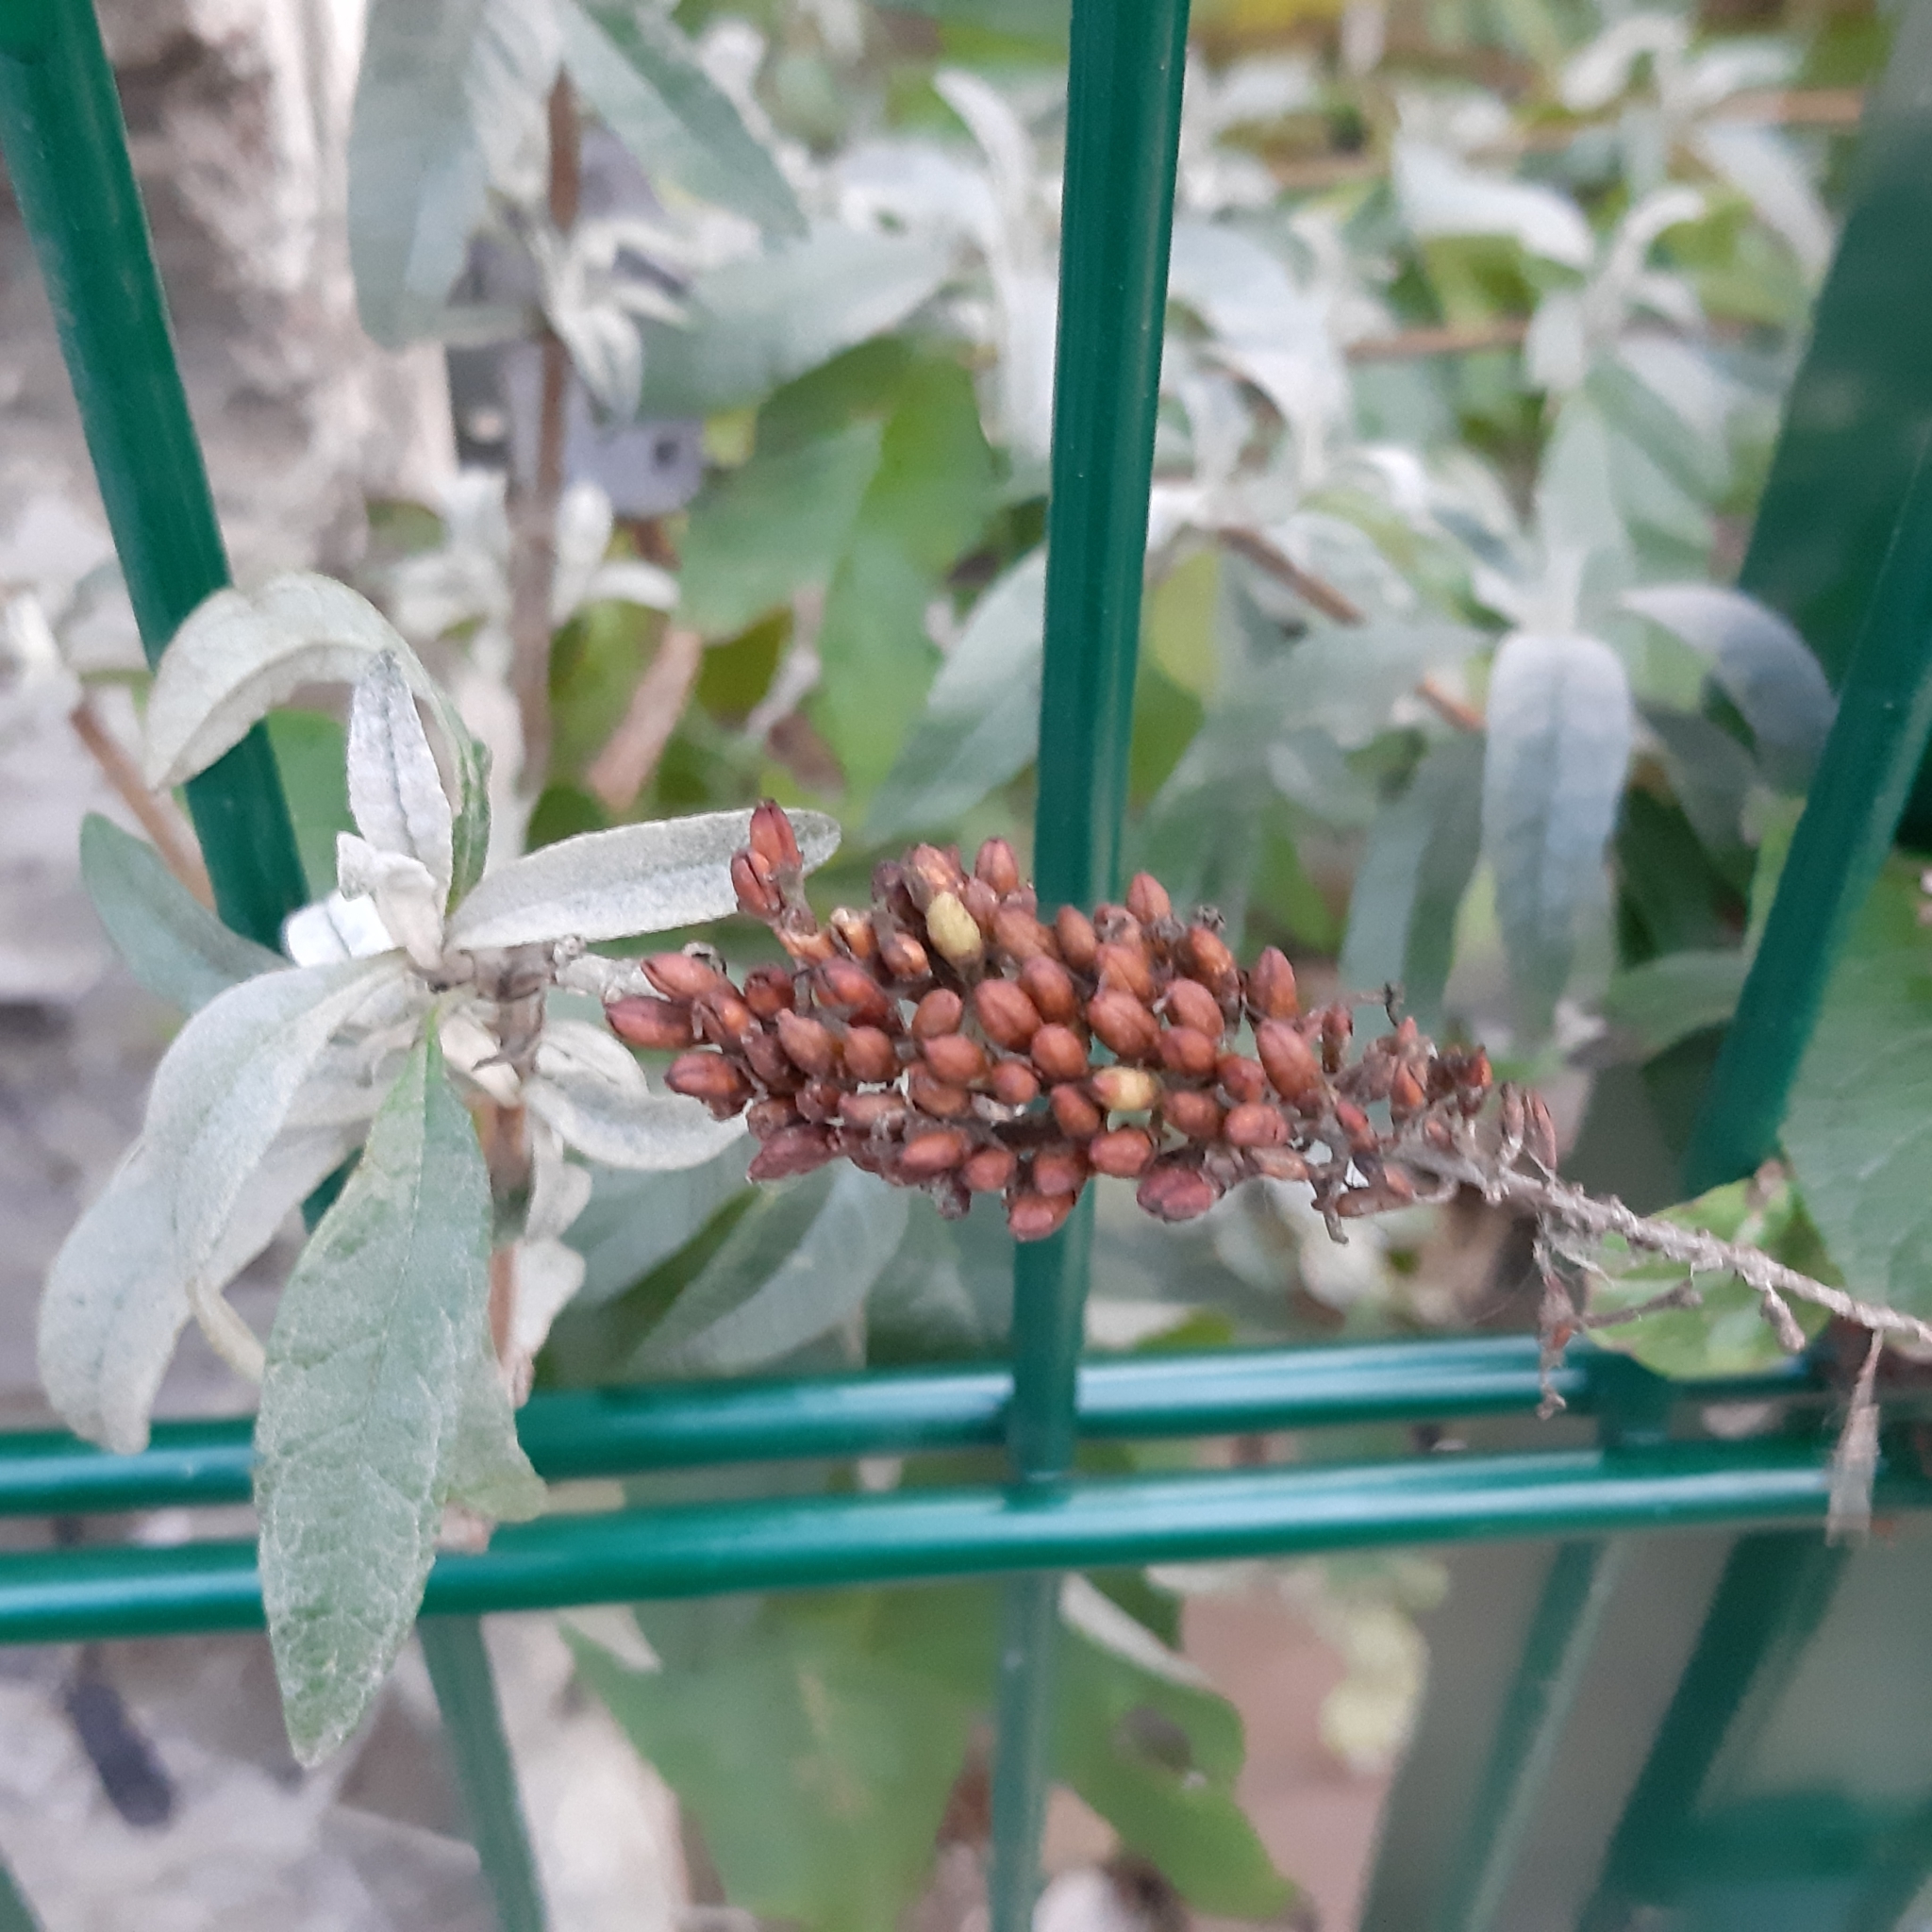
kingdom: Plantae
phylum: Tracheophyta
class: Magnoliopsida
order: Lamiales
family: Scrophulariaceae
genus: Buddleja
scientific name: Buddleja davidii
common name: Butterfly-bush
